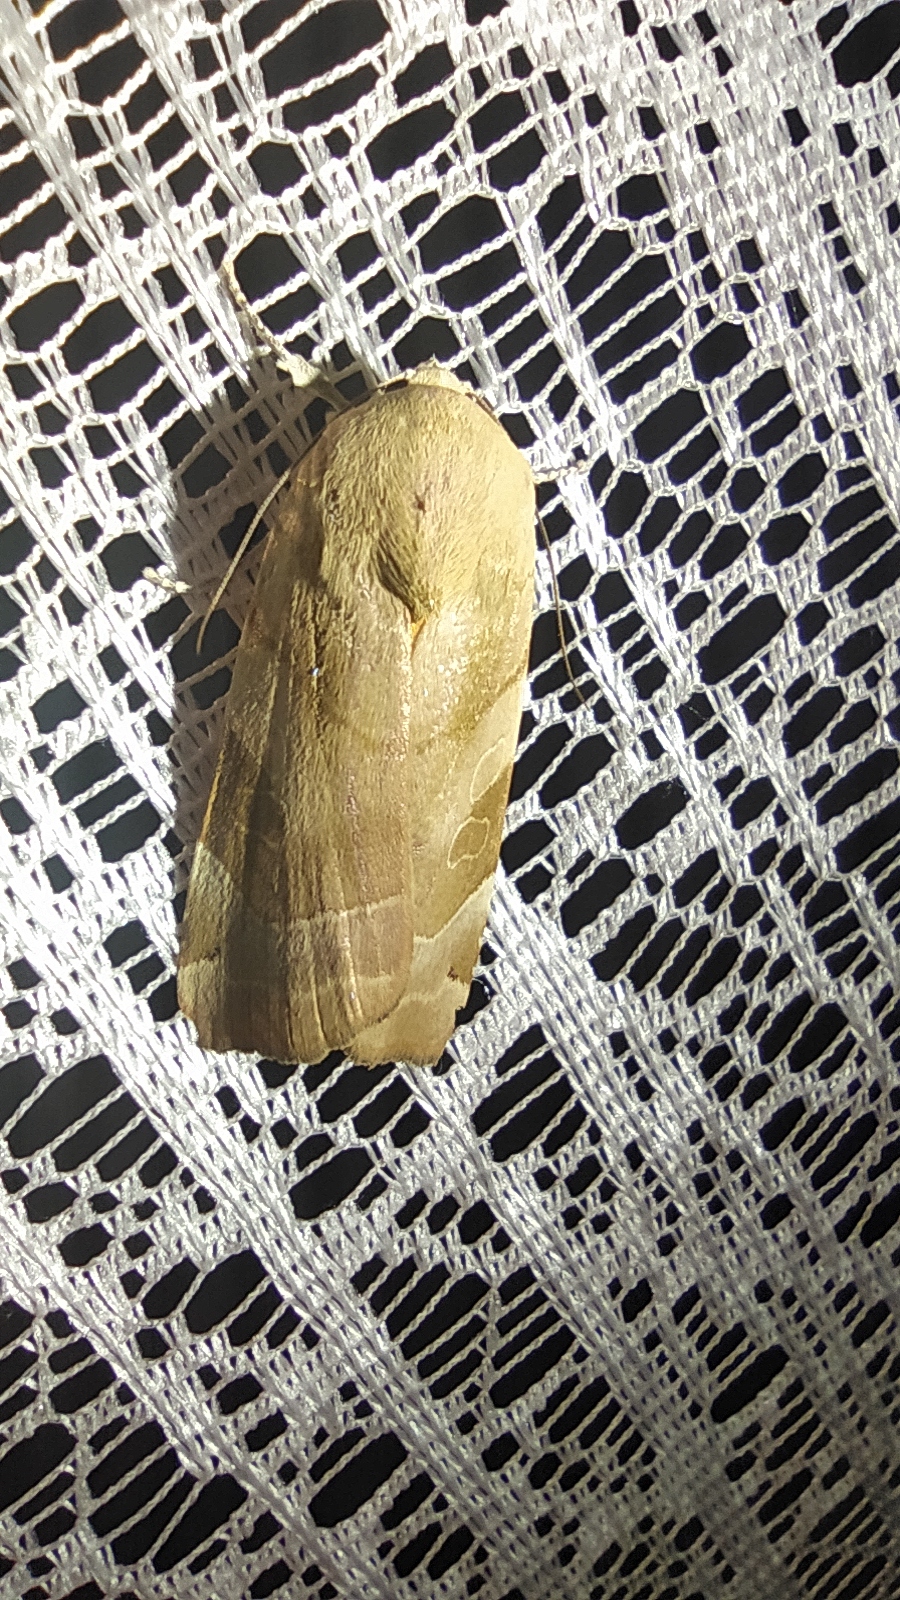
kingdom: Animalia
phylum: Arthropoda
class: Insecta
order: Lepidoptera
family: Noctuidae
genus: Noctua
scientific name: Noctua fimbriata
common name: Broad-bordered yellow underwing
